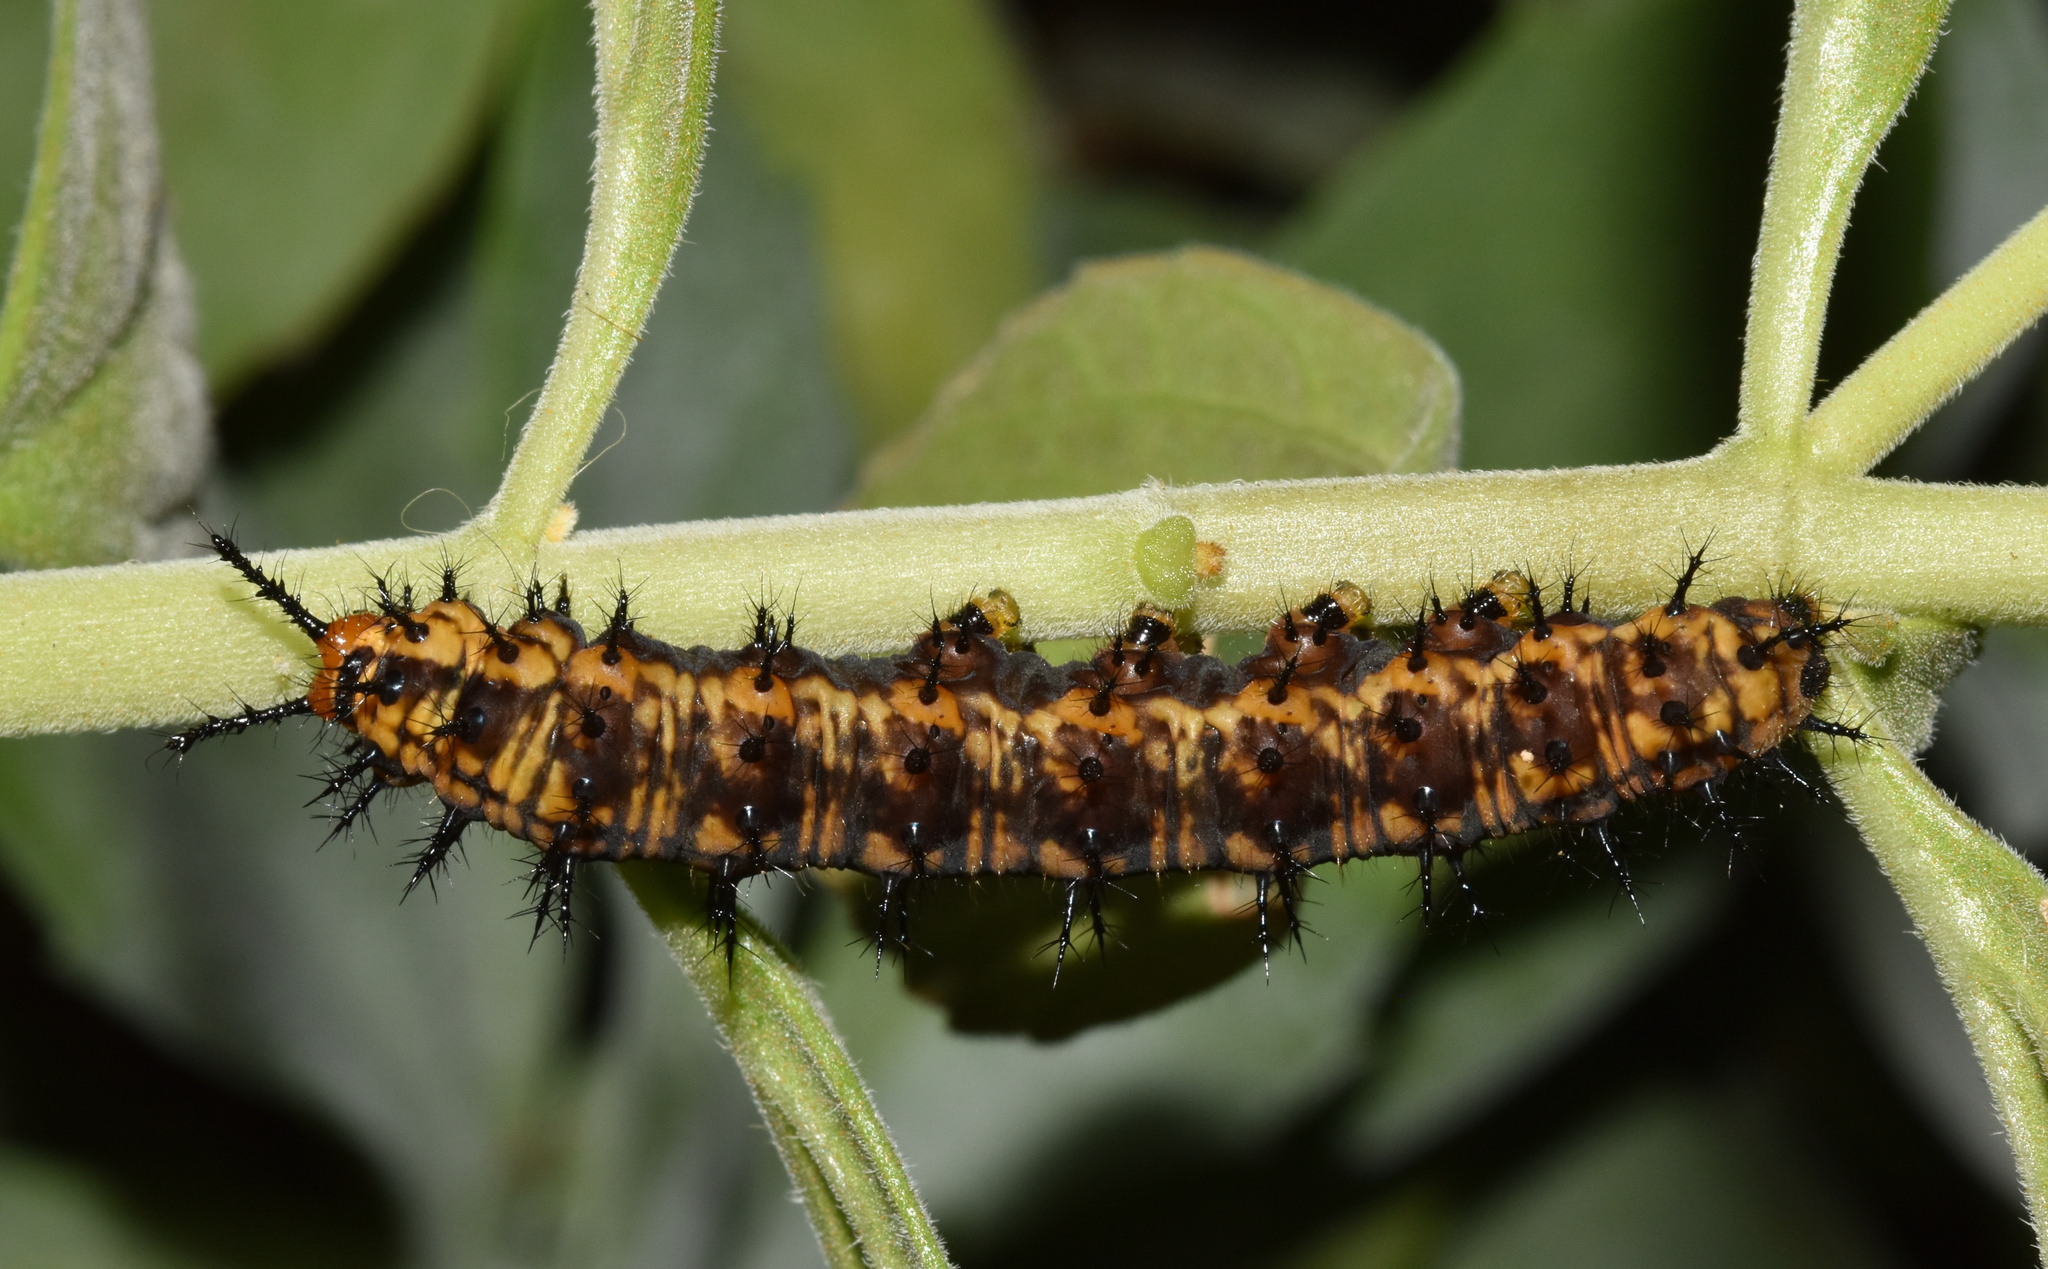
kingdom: Animalia
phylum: Arthropoda
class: Insecta
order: Lepidoptera
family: Nymphalidae
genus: Precis
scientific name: Precis octavia
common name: Gaudy commodore
